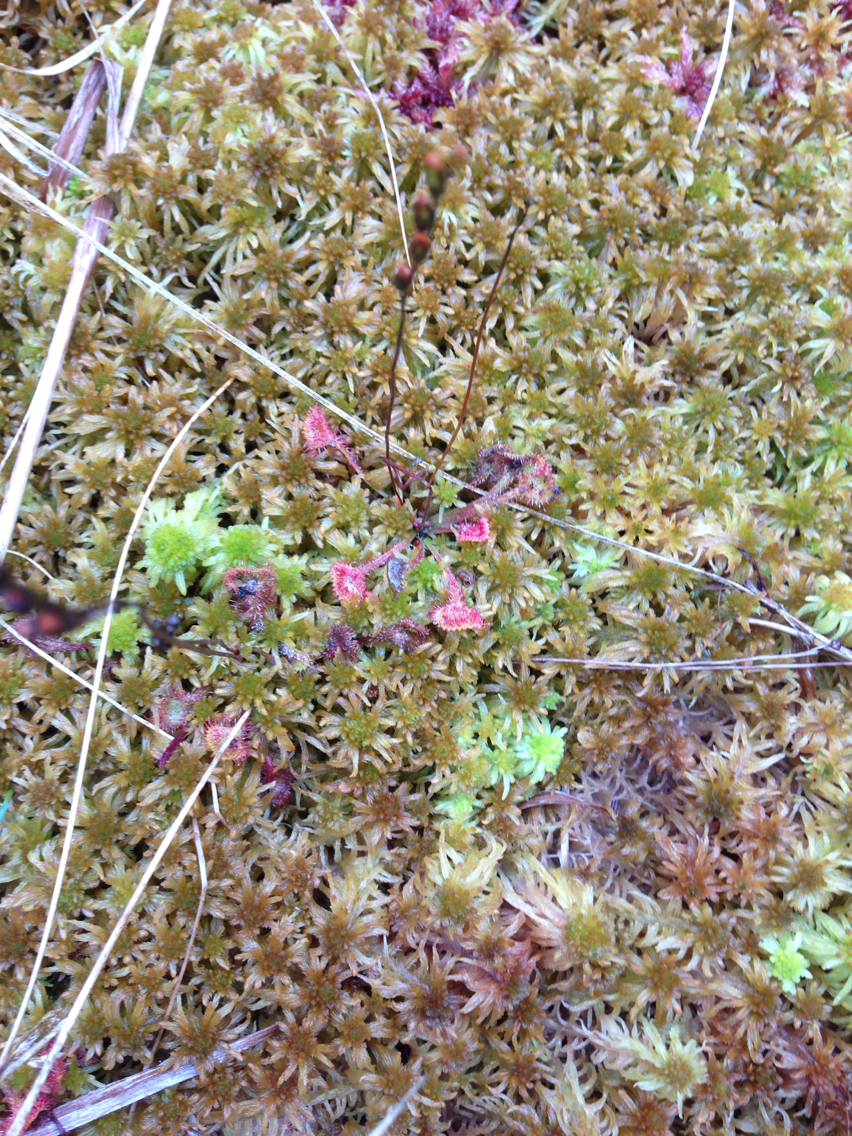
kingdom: Plantae
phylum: Tracheophyta
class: Magnoliopsida
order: Caryophyllales
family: Droseraceae
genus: Drosera
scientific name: Drosera rotundifolia
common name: Round-leaved sundew
